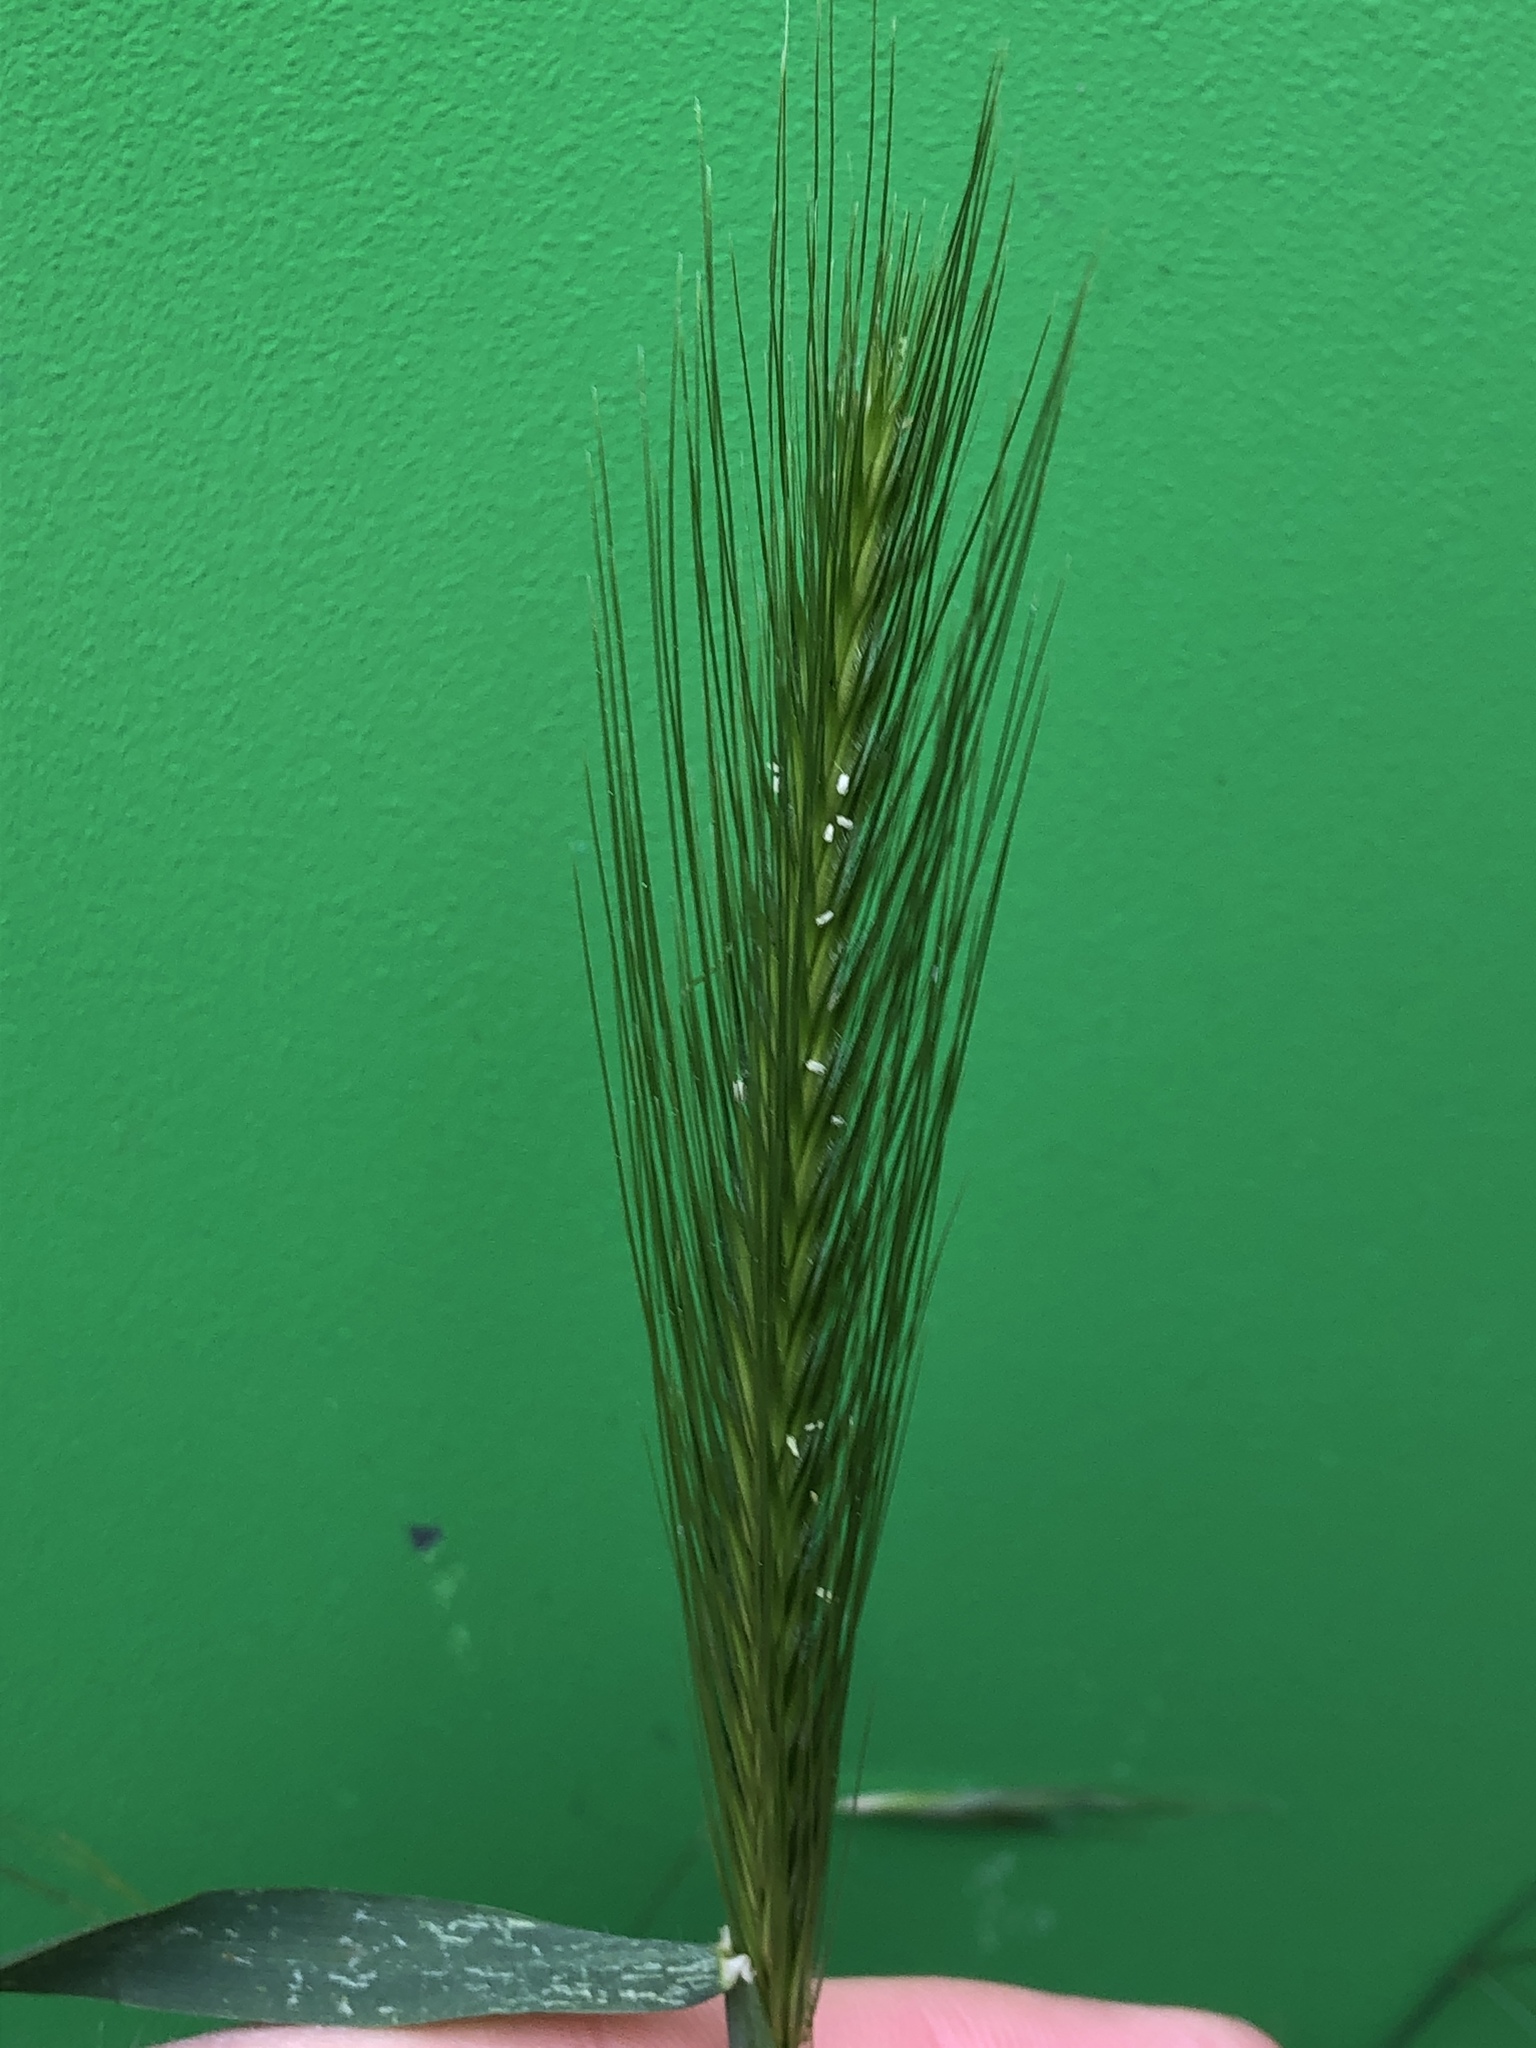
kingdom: Plantae
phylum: Tracheophyta
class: Liliopsida
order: Poales
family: Poaceae
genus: Hordeum
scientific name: Hordeum murinum
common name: Wall barley
